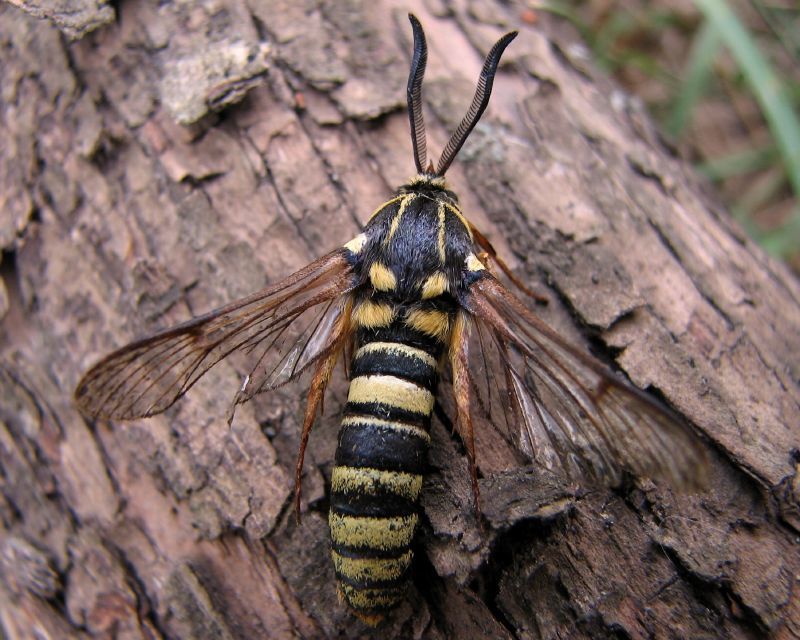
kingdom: Animalia
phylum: Arthropoda
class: Insecta
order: Lepidoptera
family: Sesiidae
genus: Sesia
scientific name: Sesia tibiale
